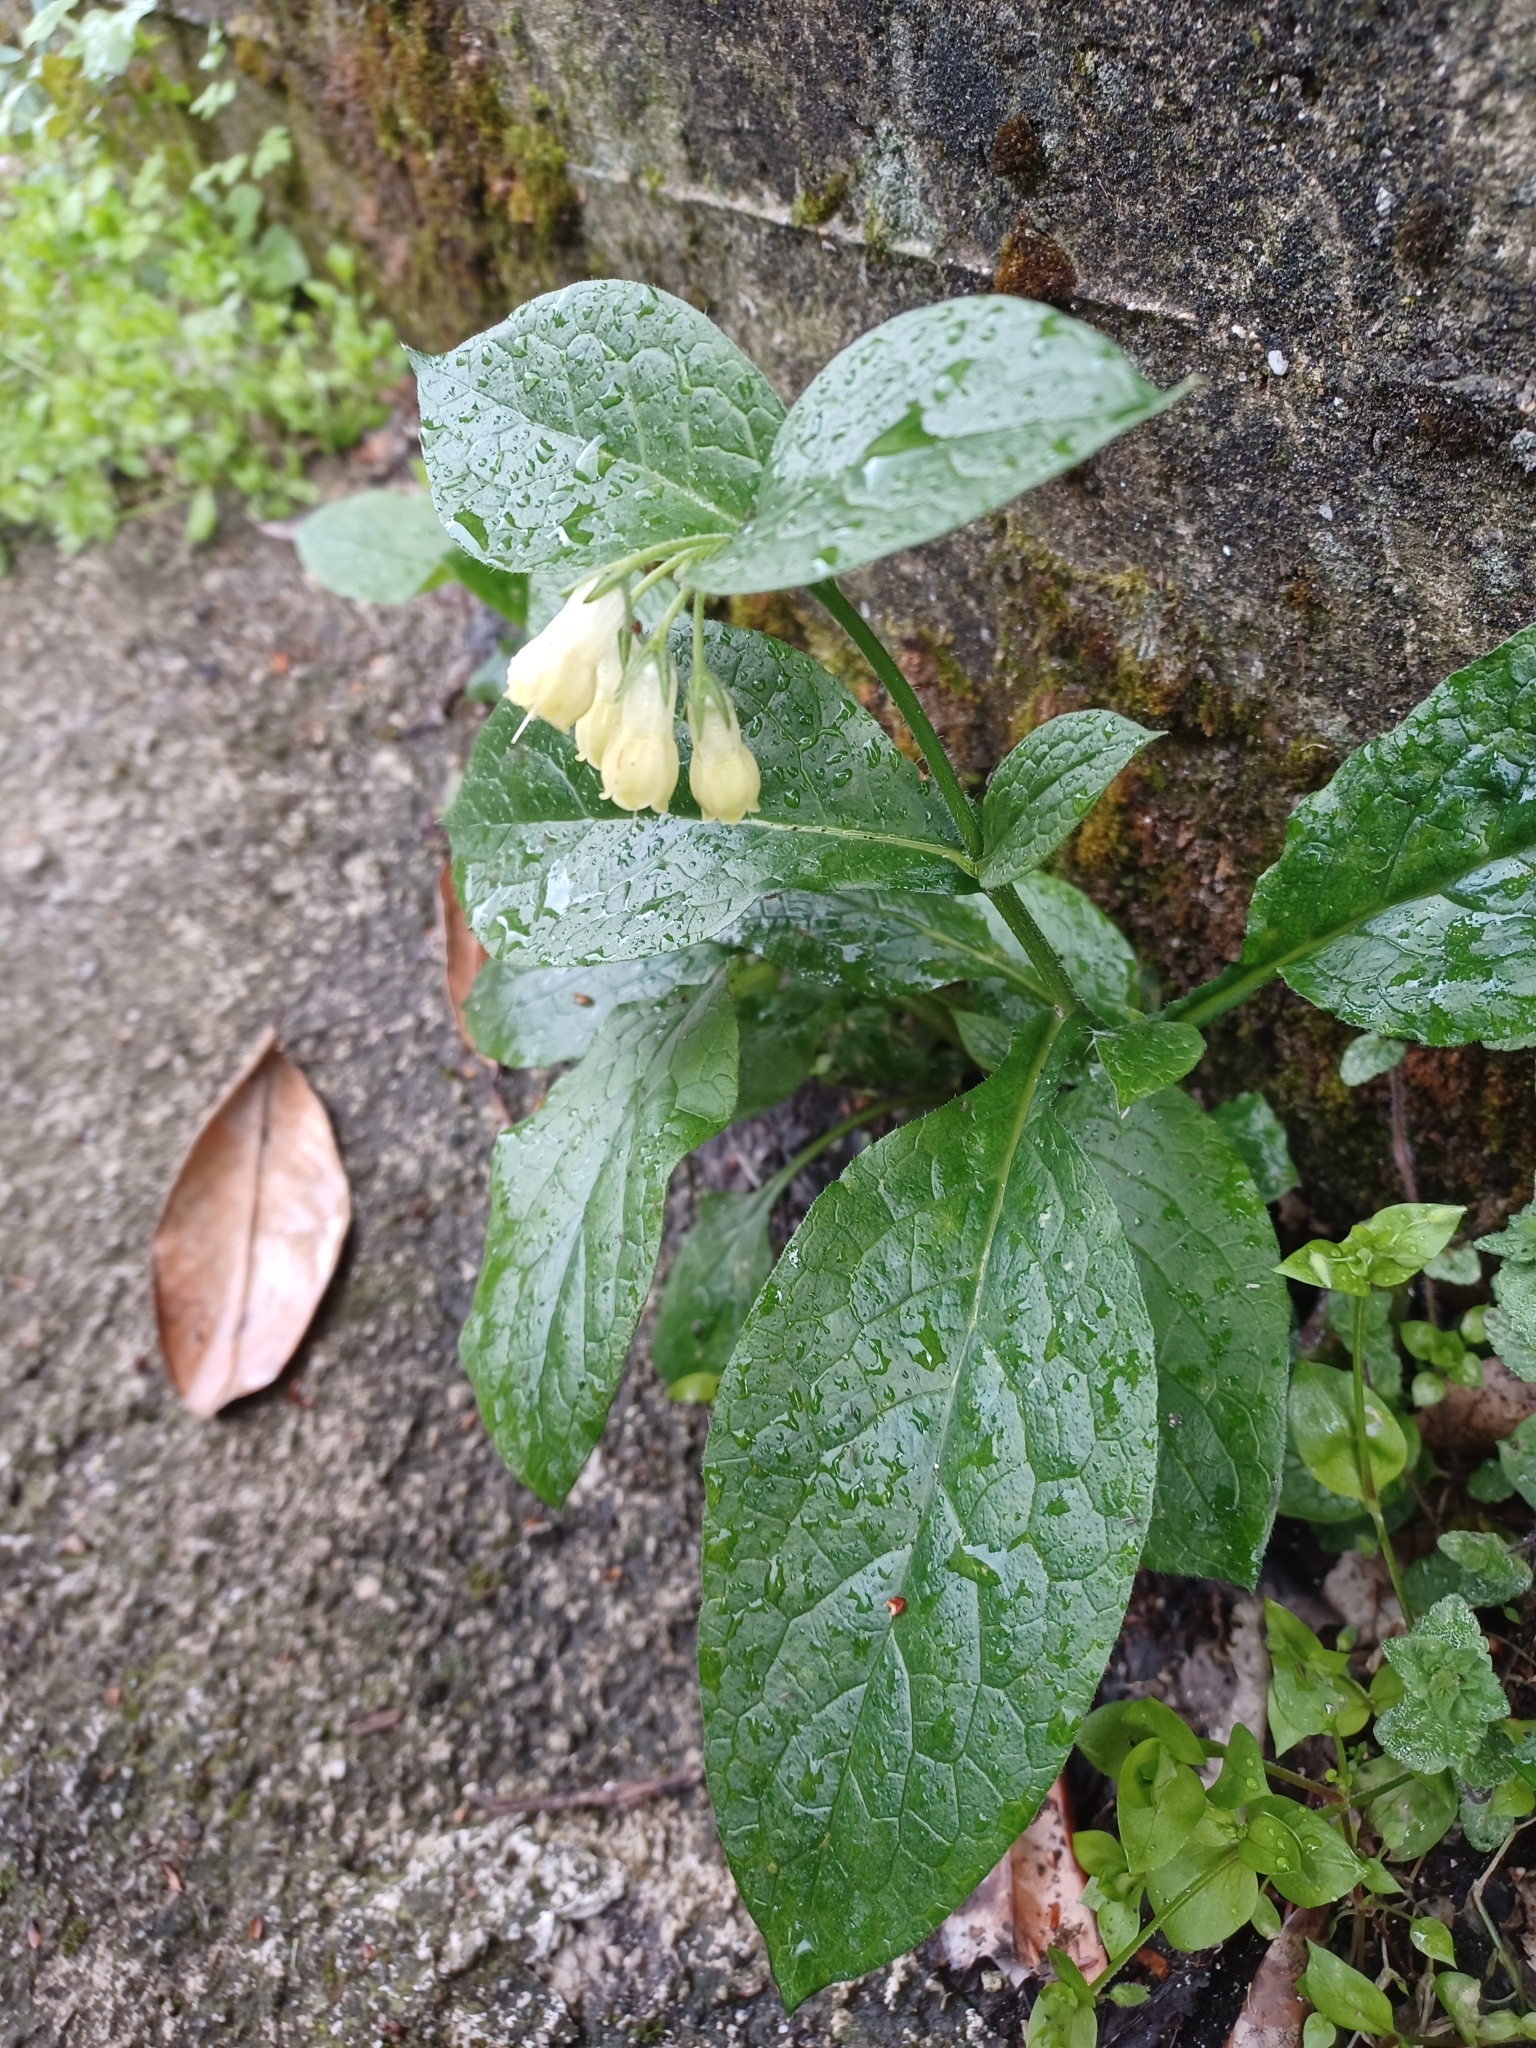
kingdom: Plantae
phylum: Tracheophyta
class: Magnoliopsida
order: Boraginales
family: Boraginaceae
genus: Symphytum
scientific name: Symphytum tuberosum
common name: Tuberous comfrey
